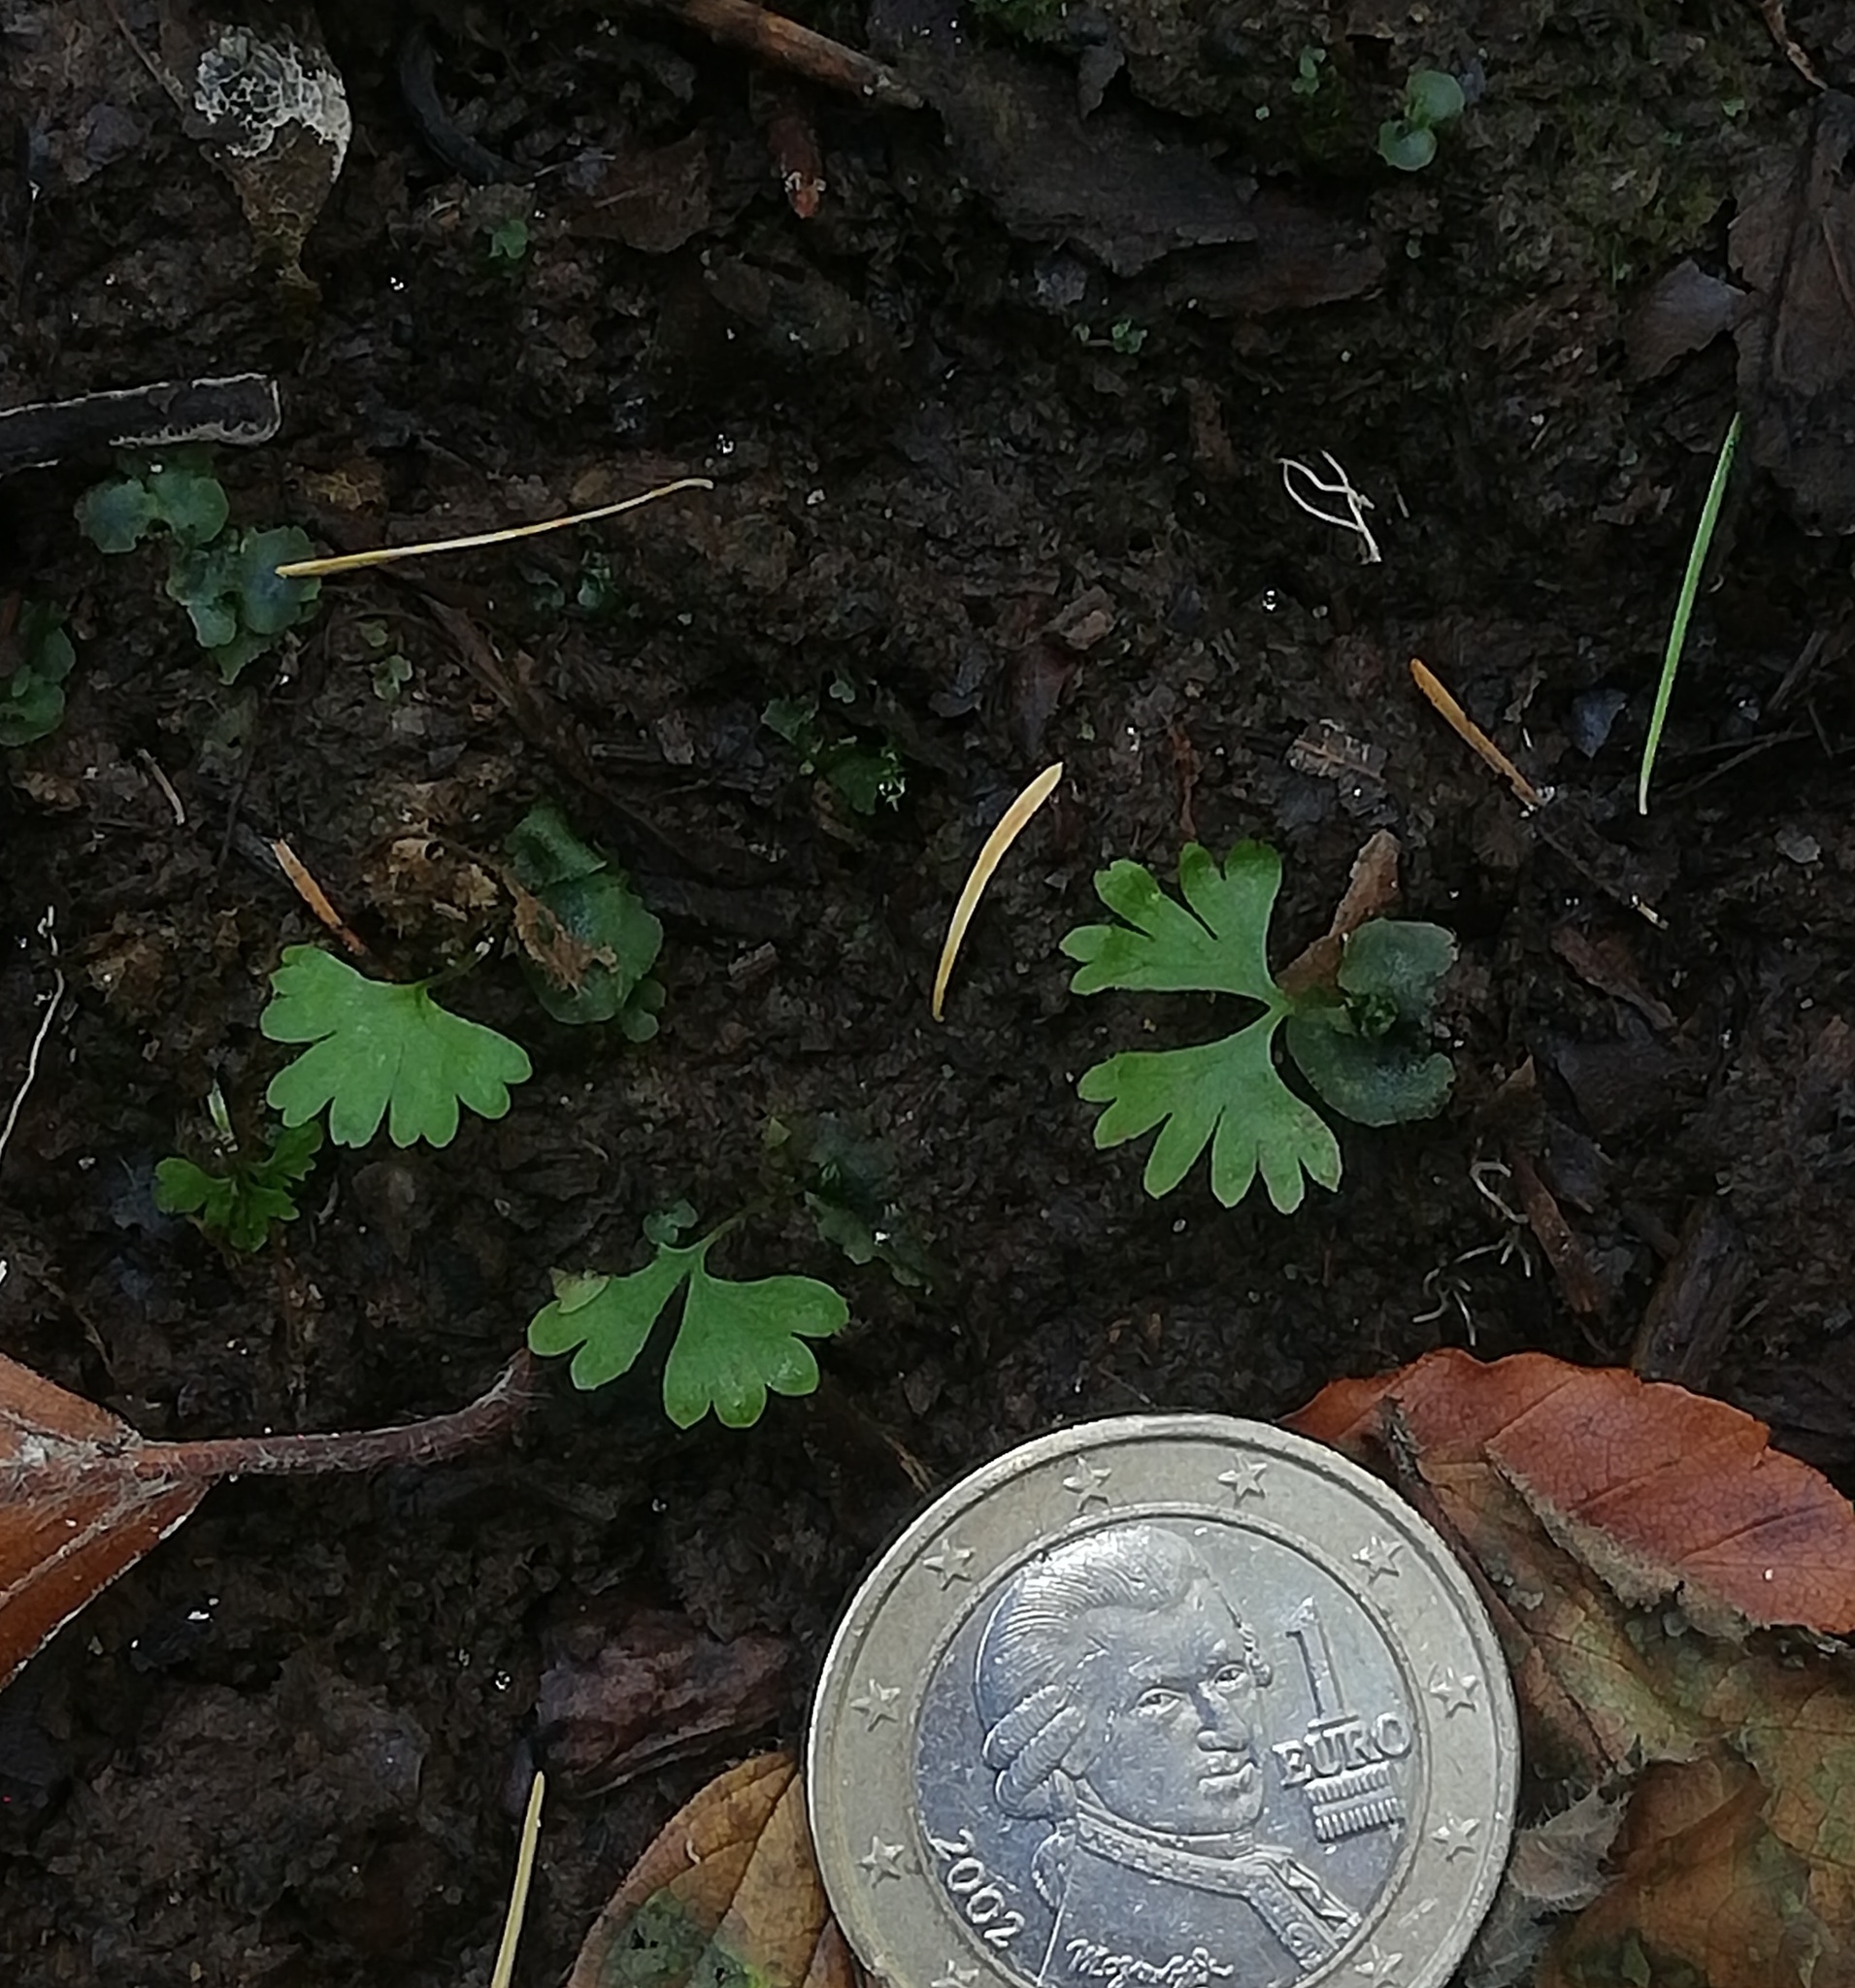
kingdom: Plantae
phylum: Tracheophyta
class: Polypodiopsida
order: Polypodiales
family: Athyriaceae
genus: Athyrium
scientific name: Athyrium filix-femina
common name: Lady fern
